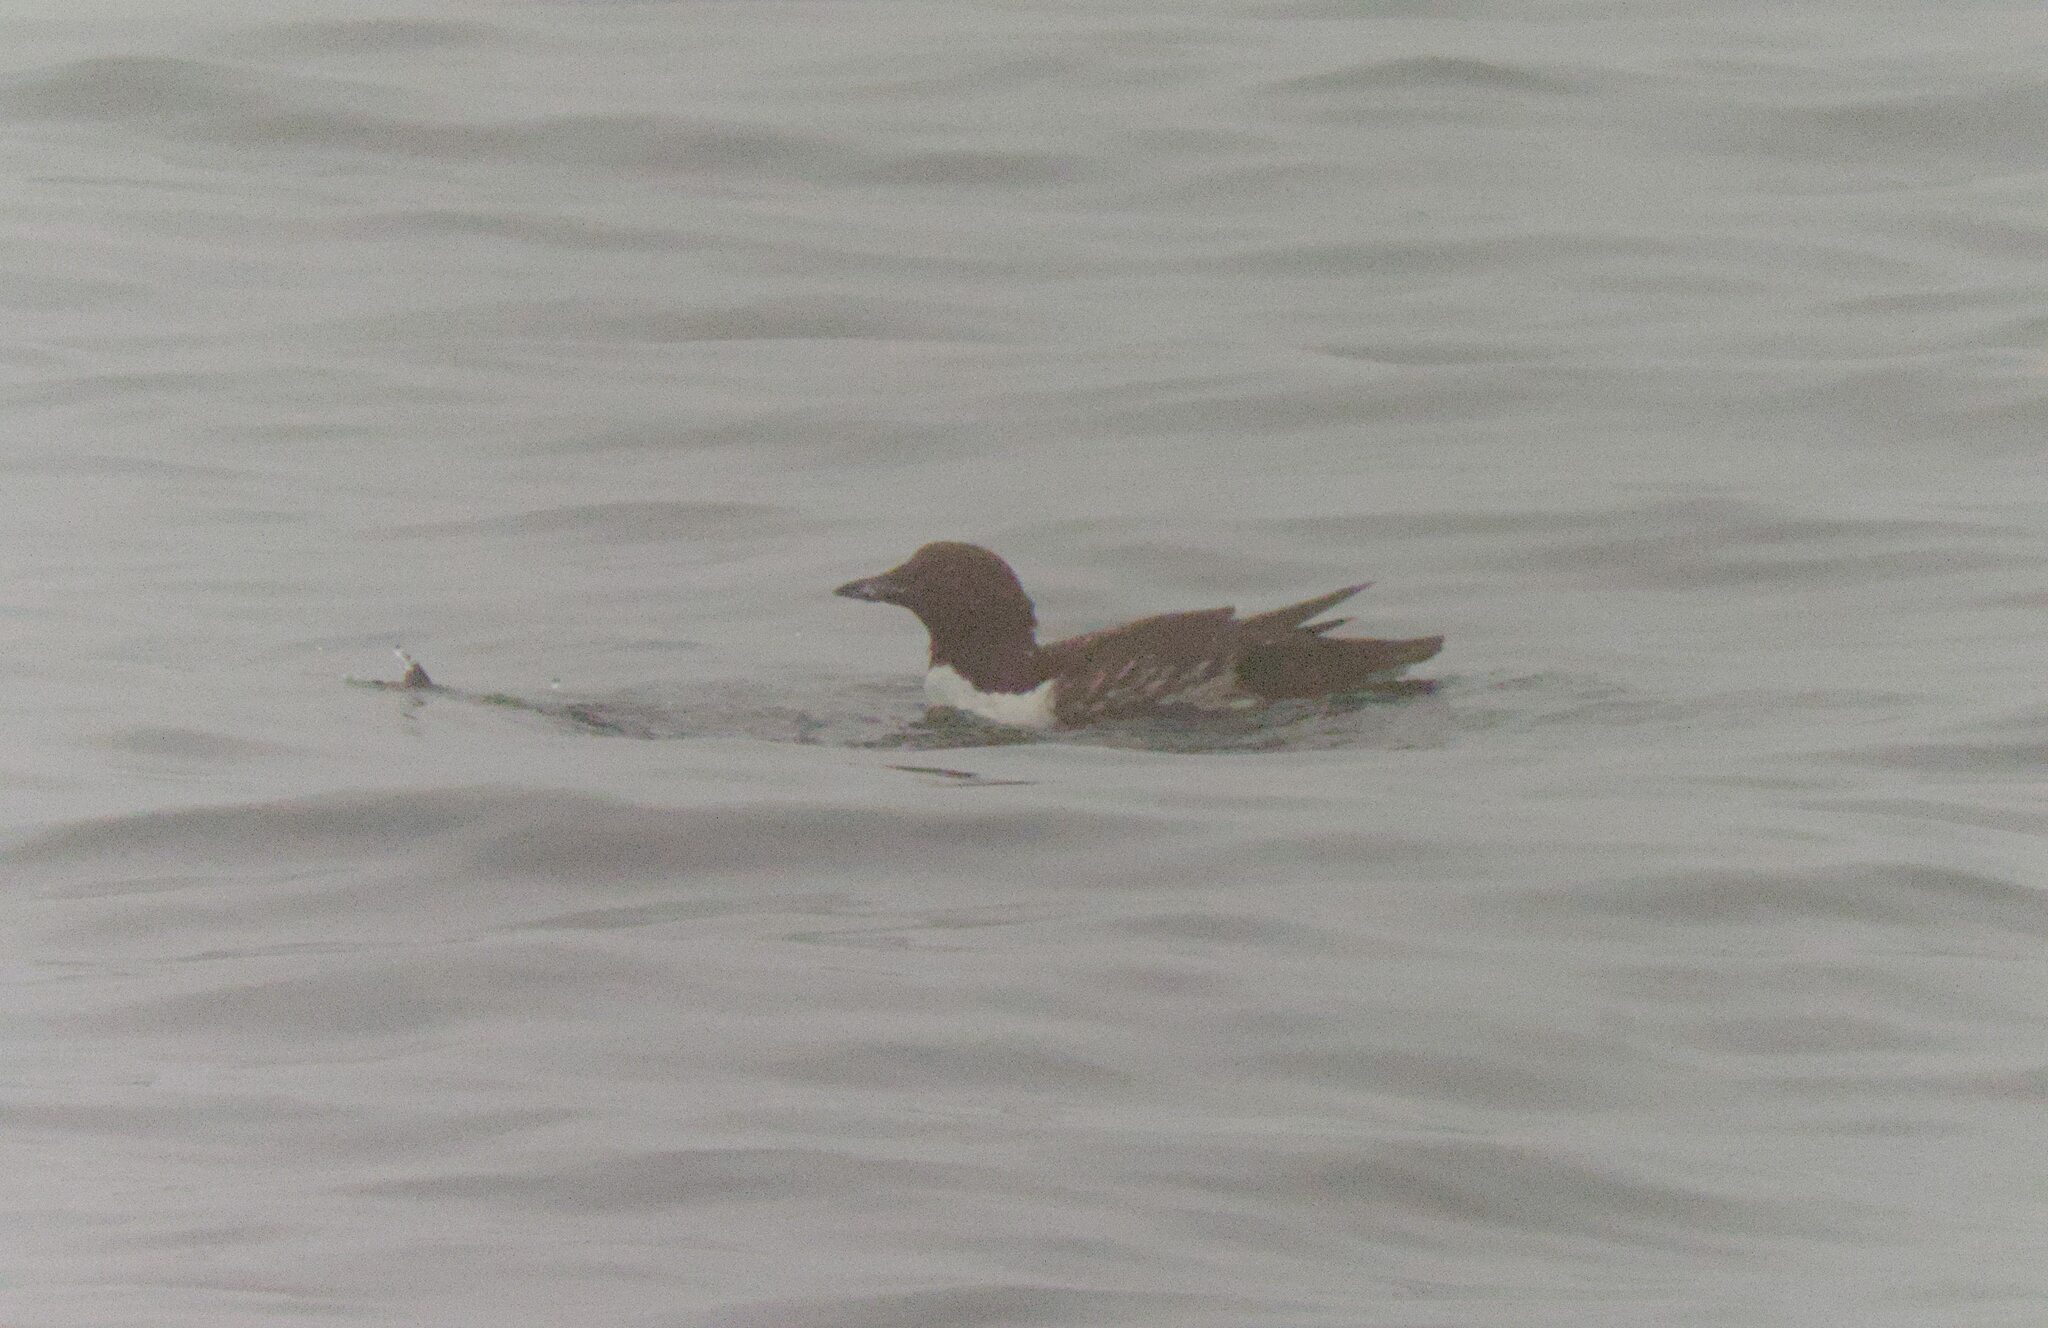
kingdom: Animalia
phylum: Chordata
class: Aves
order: Charadriiformes
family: Alcidae
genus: Uria
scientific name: Uria aalge
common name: Common murre
